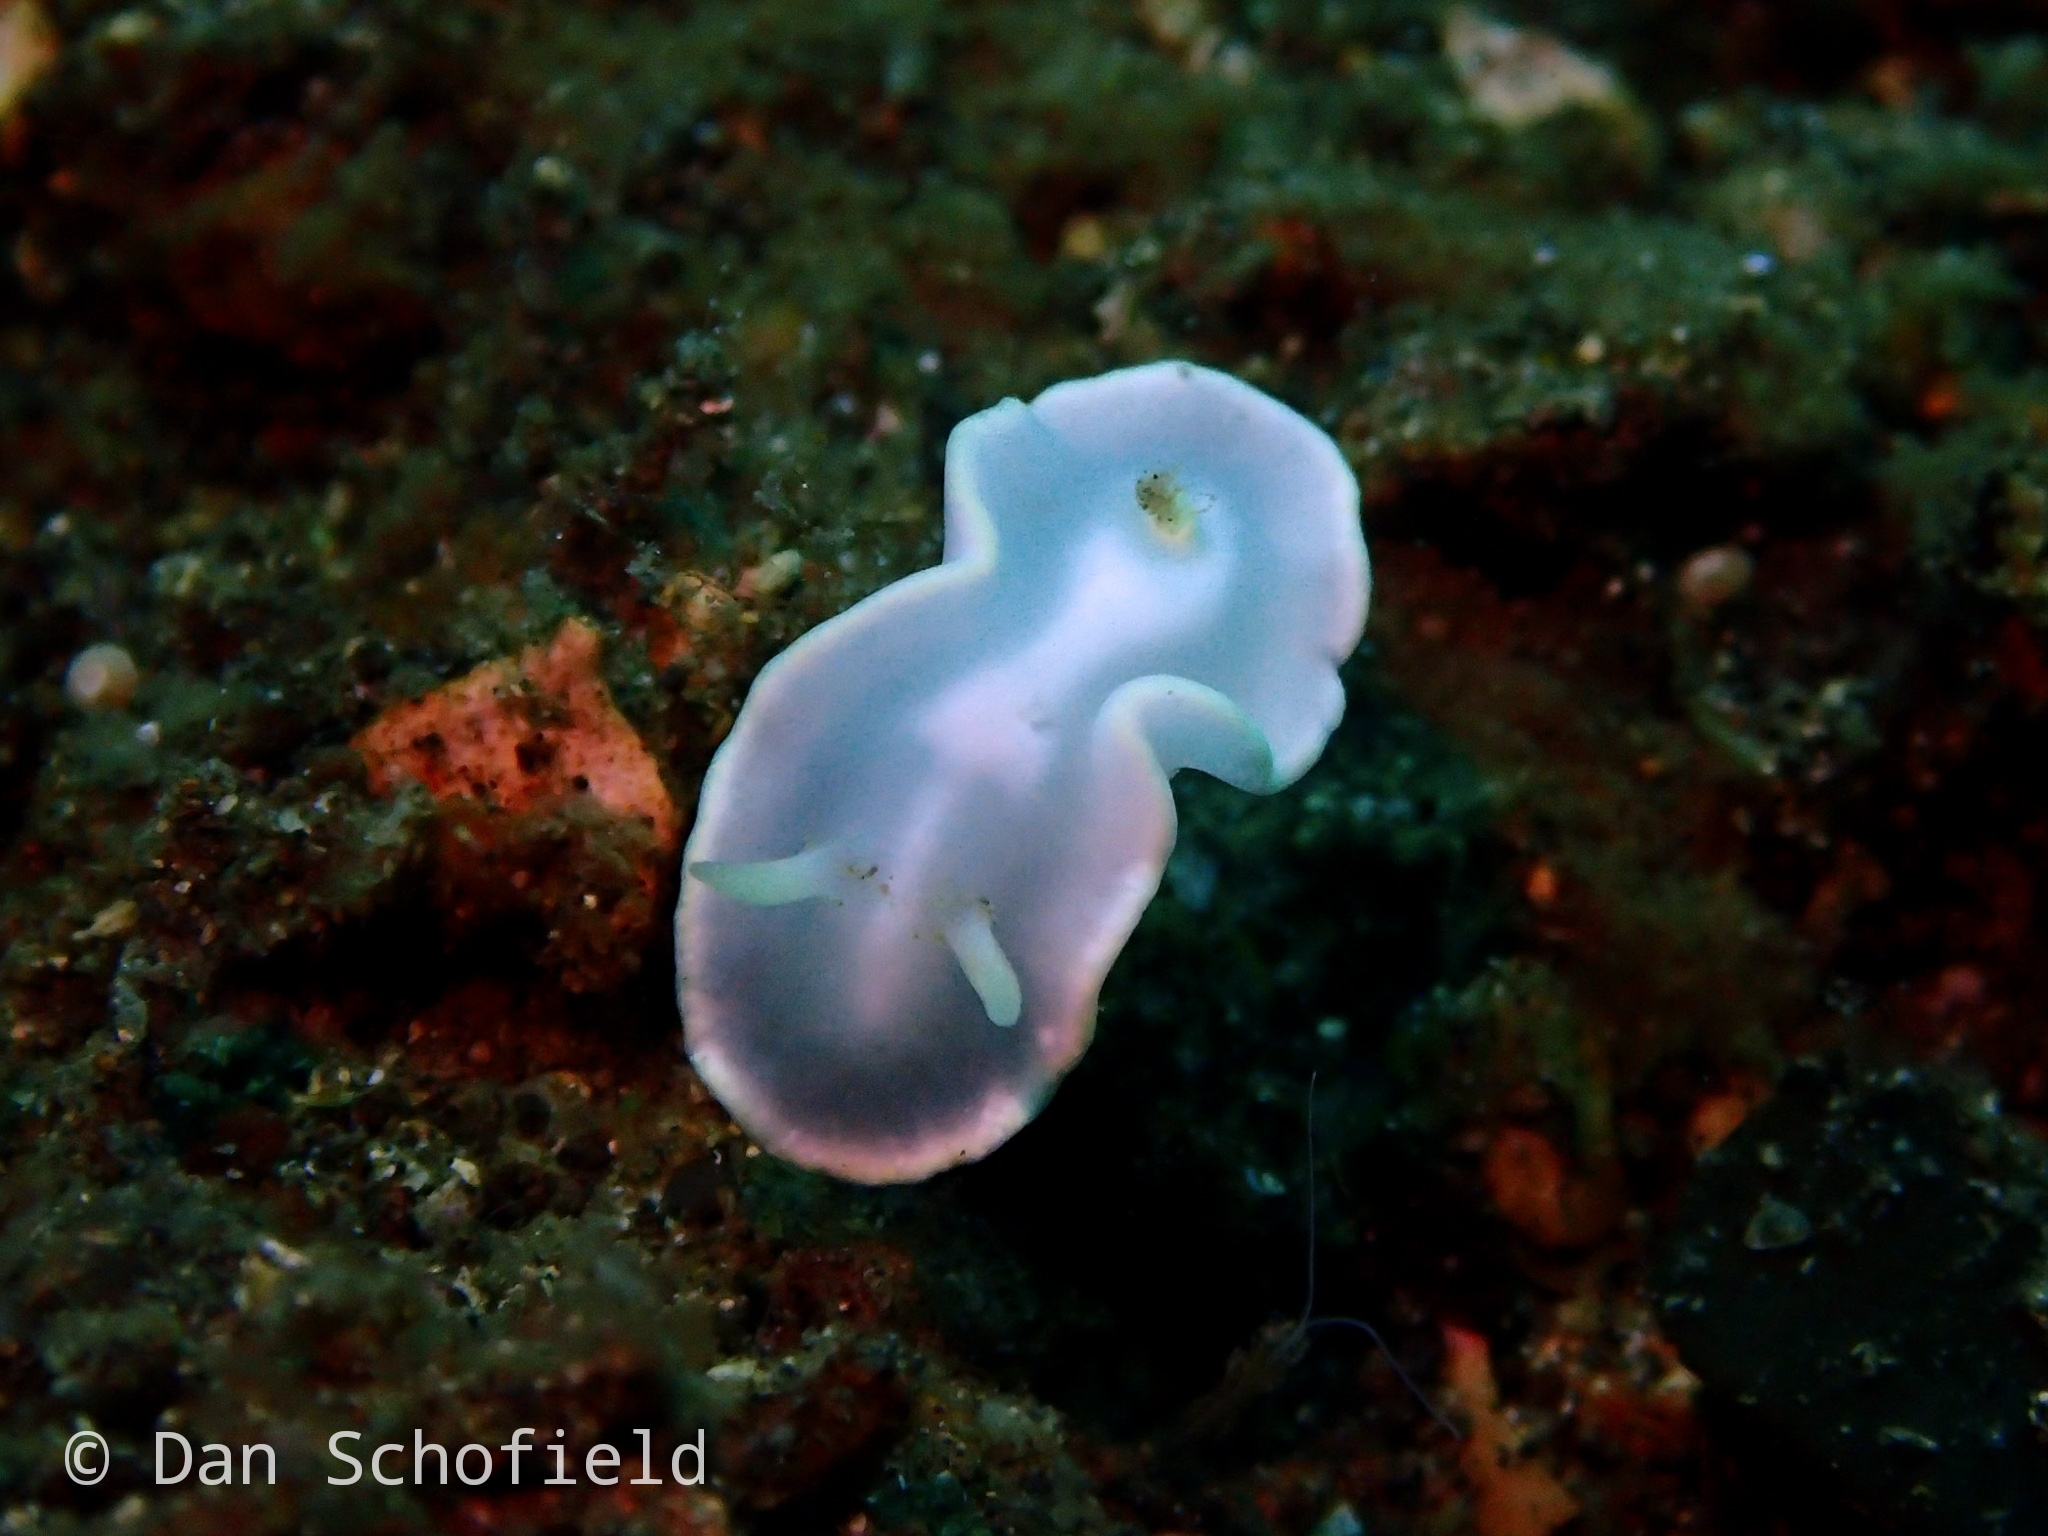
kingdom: Animalia
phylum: Mollusca
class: Gastropoda
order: Nudibranchia
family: Chromodorididae
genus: Glossodoris
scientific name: Glossodoris buko
